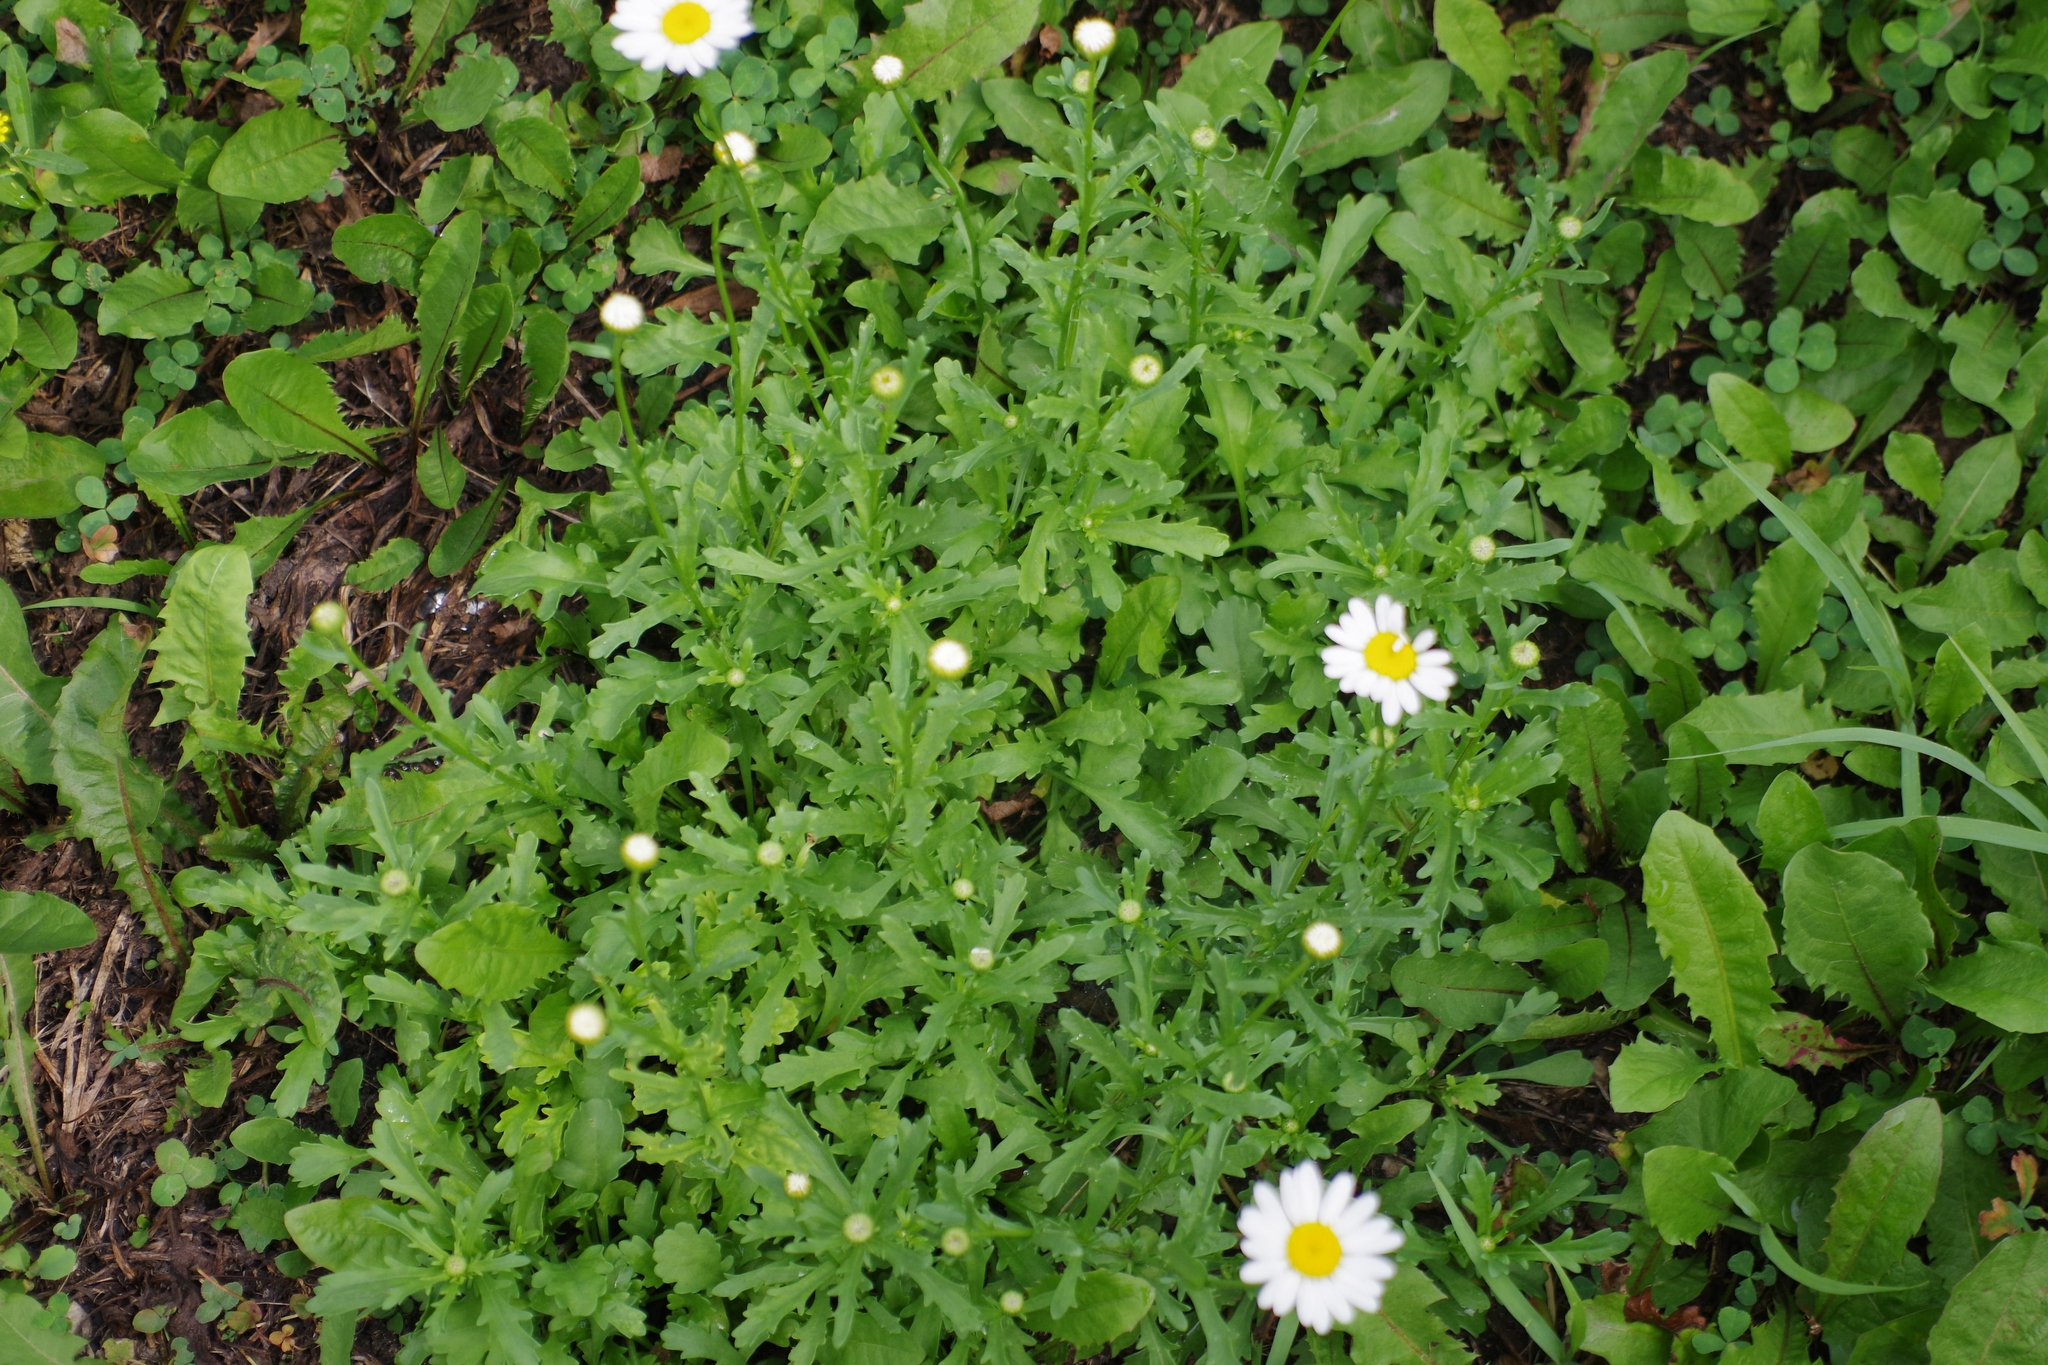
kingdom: Plantae
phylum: Tracheophyta
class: Magnoliopsida
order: Asterales
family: Asteraceae
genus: Leucanthemum
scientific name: Leucanthemum vulgare
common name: Oxeye daisy
